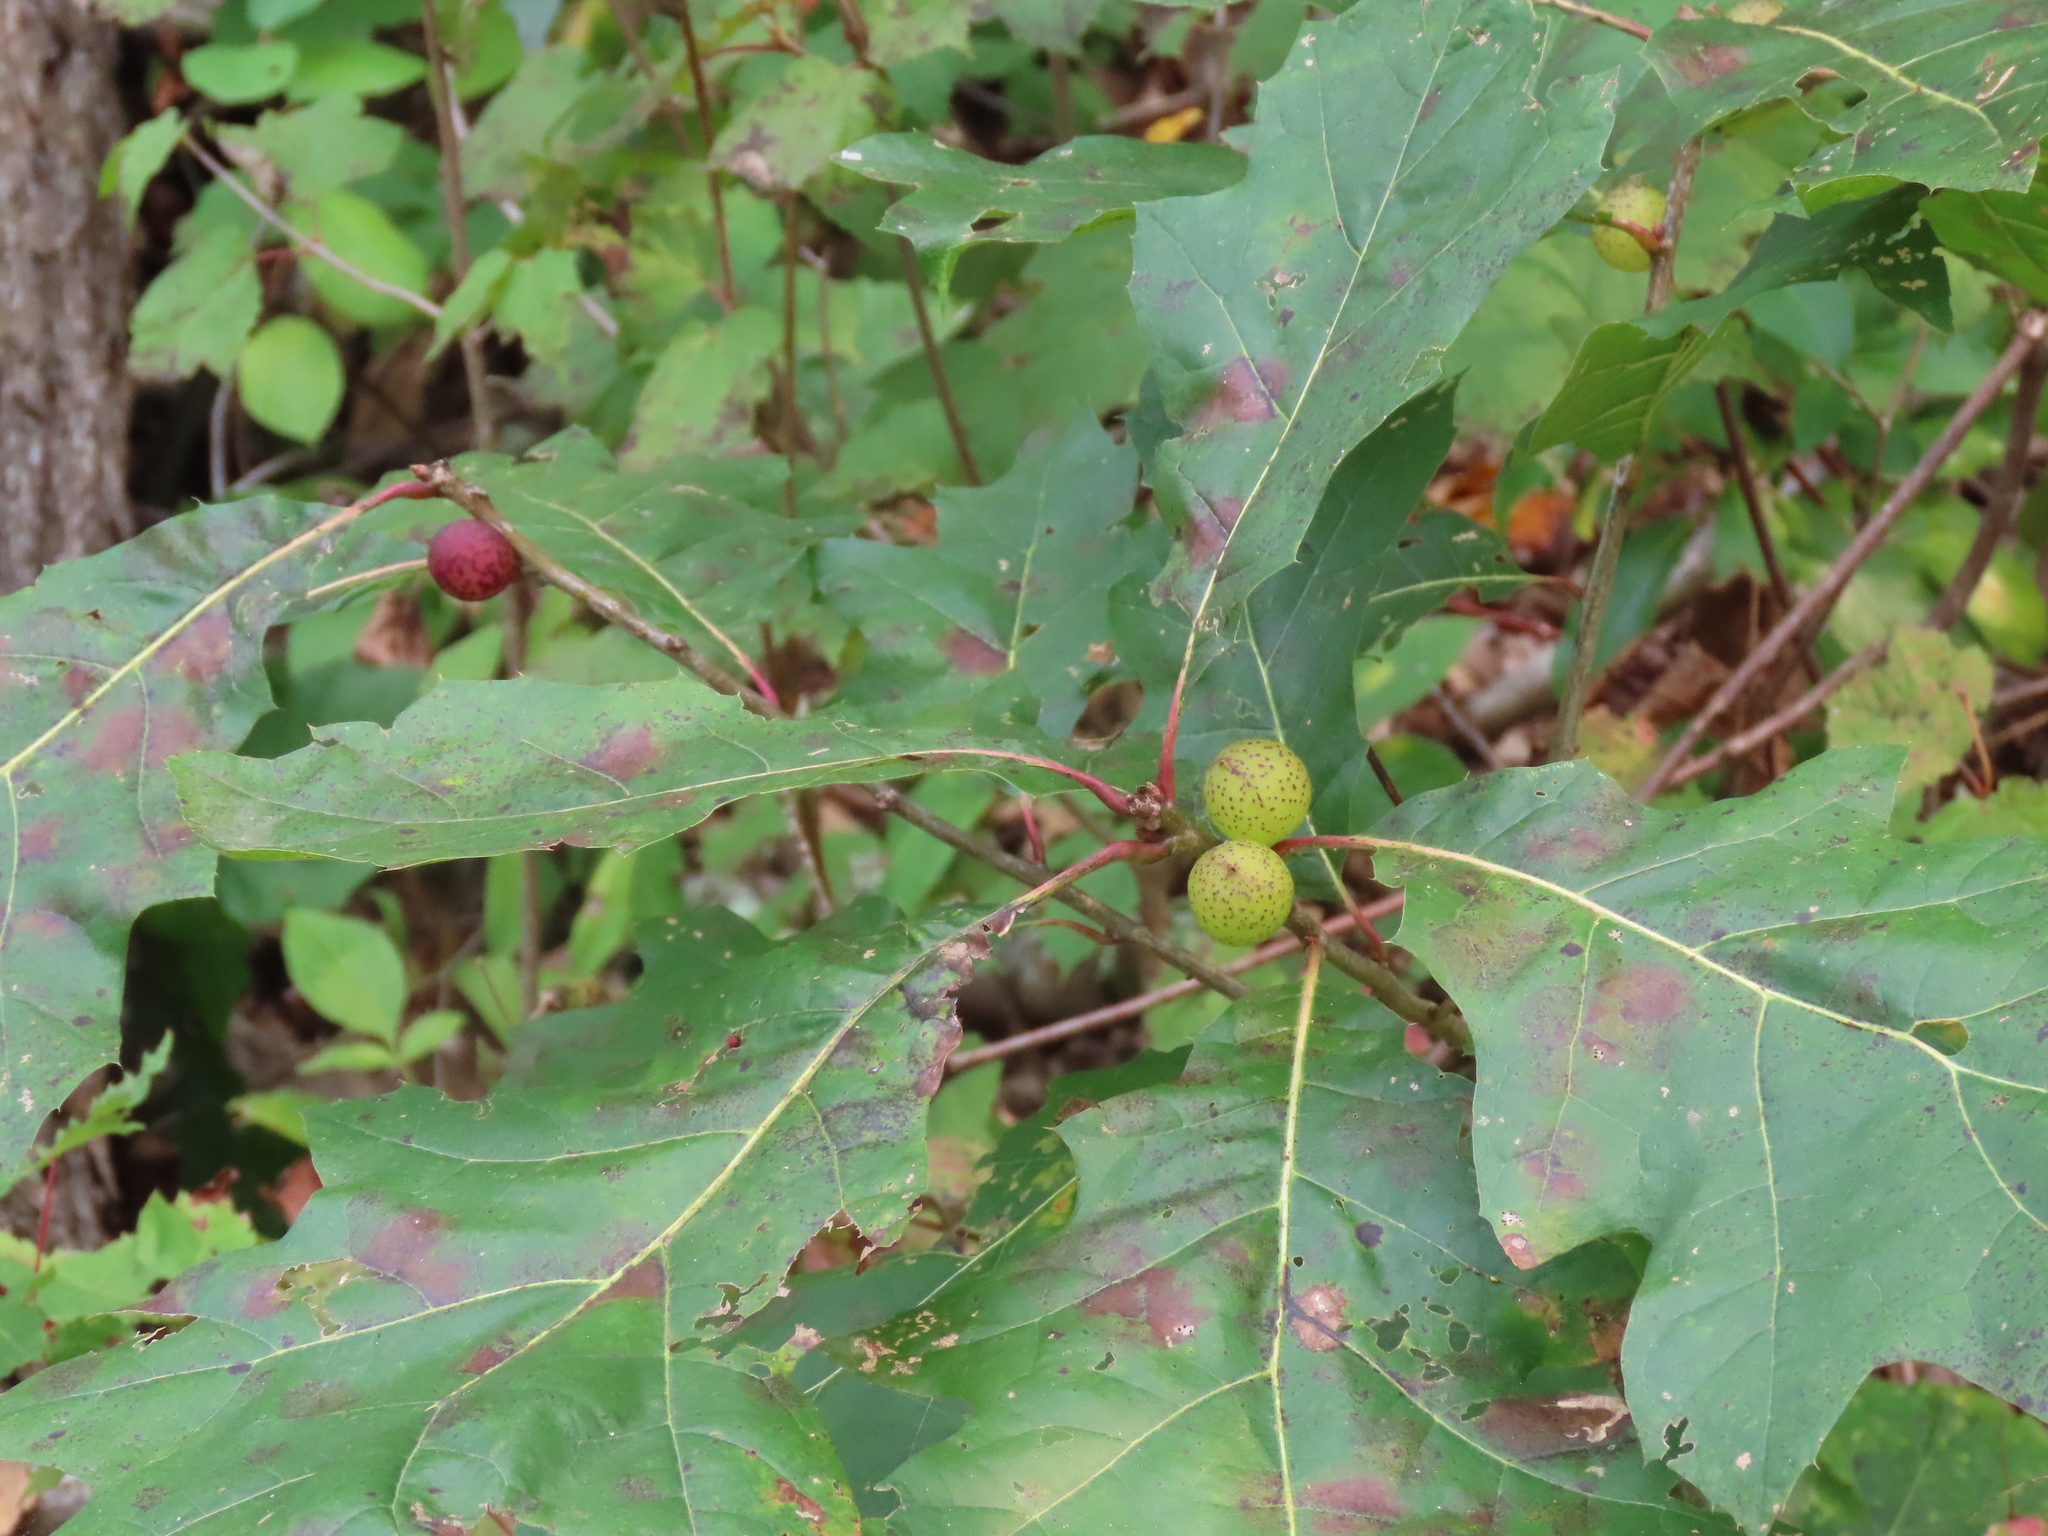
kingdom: Animalia
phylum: Arthropoda
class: Insecta
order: Hymenoptera
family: Cynipidae
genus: Amphibolips
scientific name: Amphibolips
